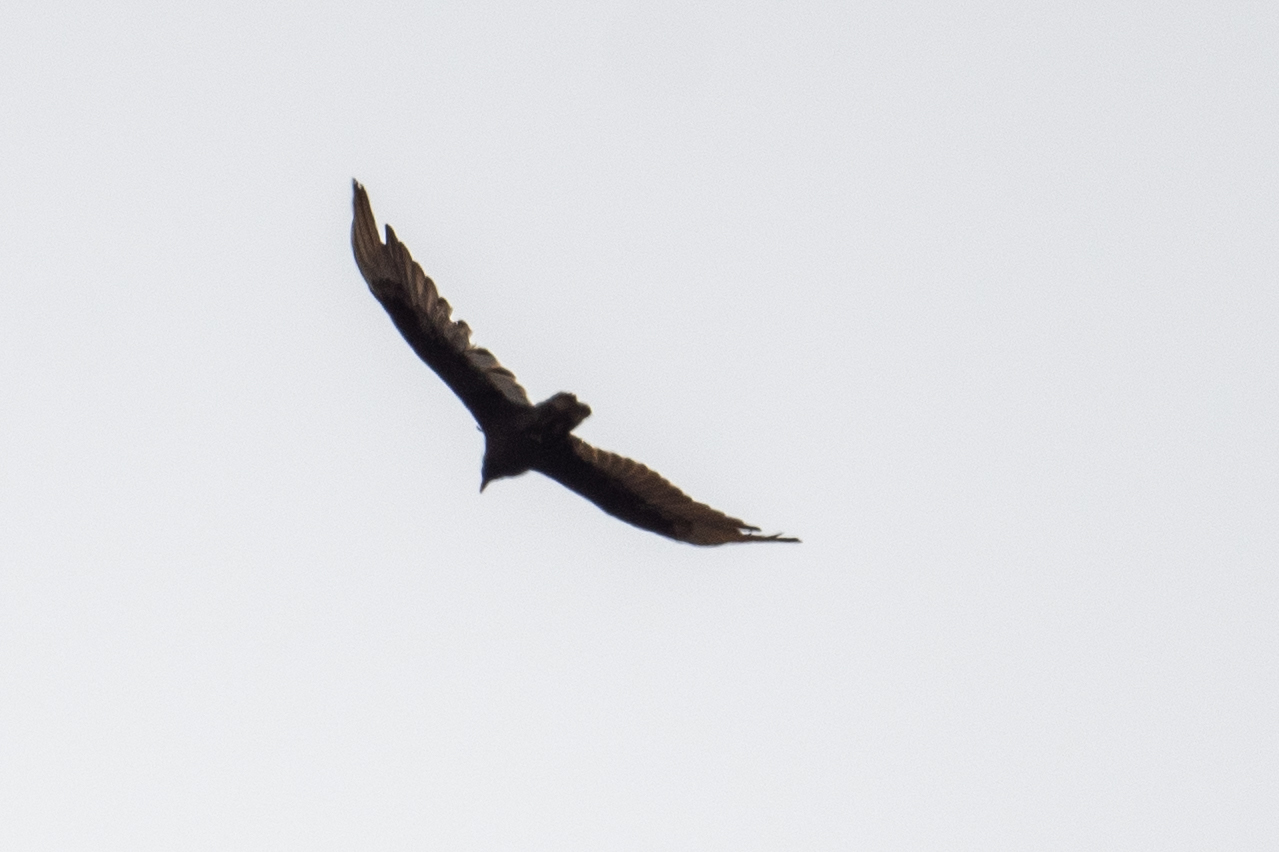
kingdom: Animalia
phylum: Chordata
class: Aves
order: Accipitriformes
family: Cathartidae
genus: Cathartes
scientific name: Cathartes aura
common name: Turkey vulture
